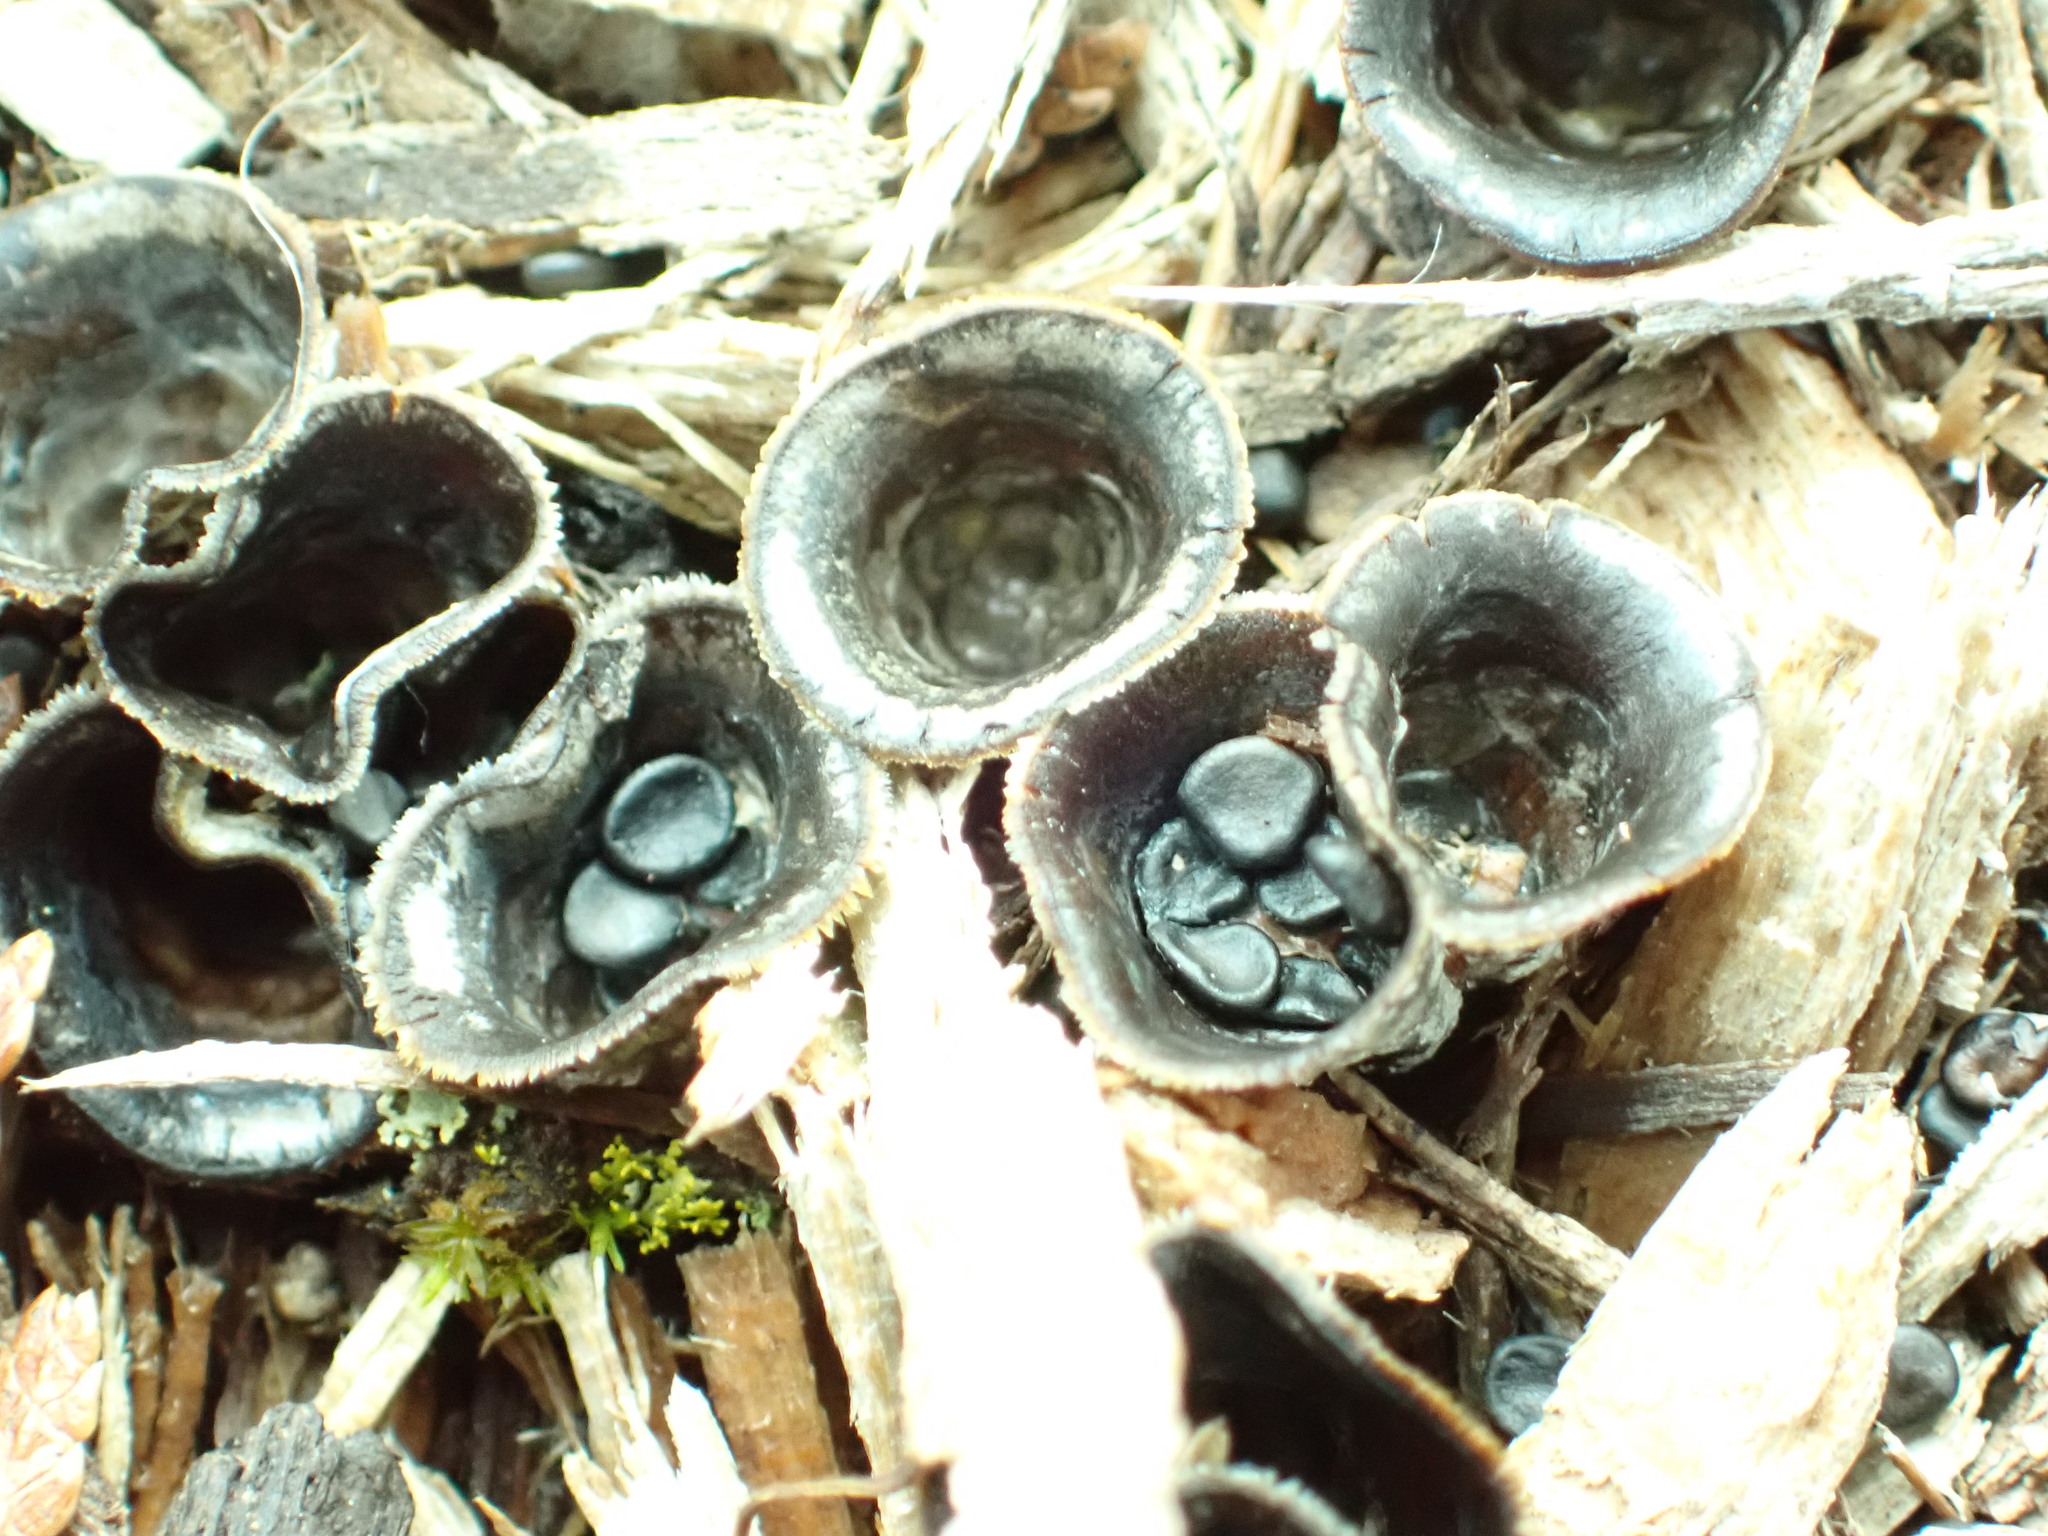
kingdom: Fungi
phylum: Basidiomycota
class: Agaricomycetes
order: Agaricales
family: Agaricaceae
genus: Cyathus
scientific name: Cyathus stercoreus
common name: Dung bird's nest
